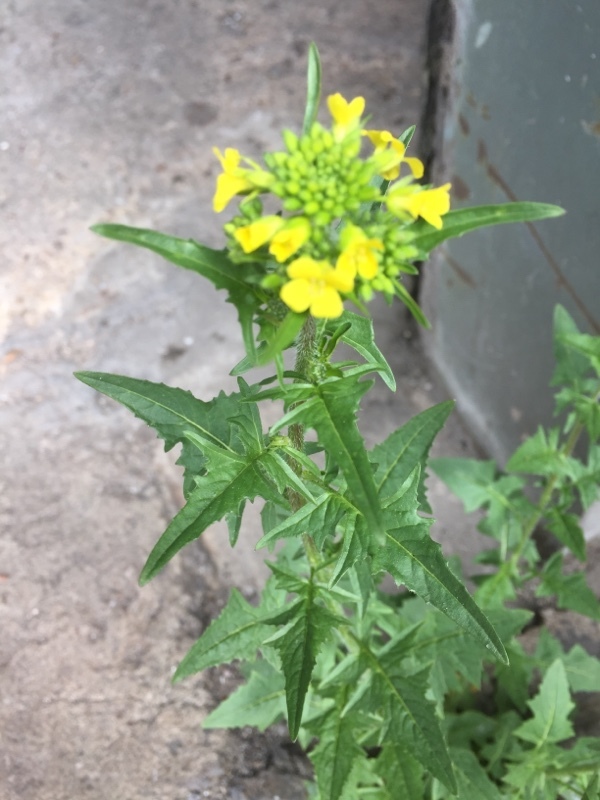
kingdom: Plantae
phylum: Tracheophyta
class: Magnoliopsida
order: Brassicales
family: Brassicaceae
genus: Sisymbrium
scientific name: Sisymbrium loeselii
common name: False london-rocket
